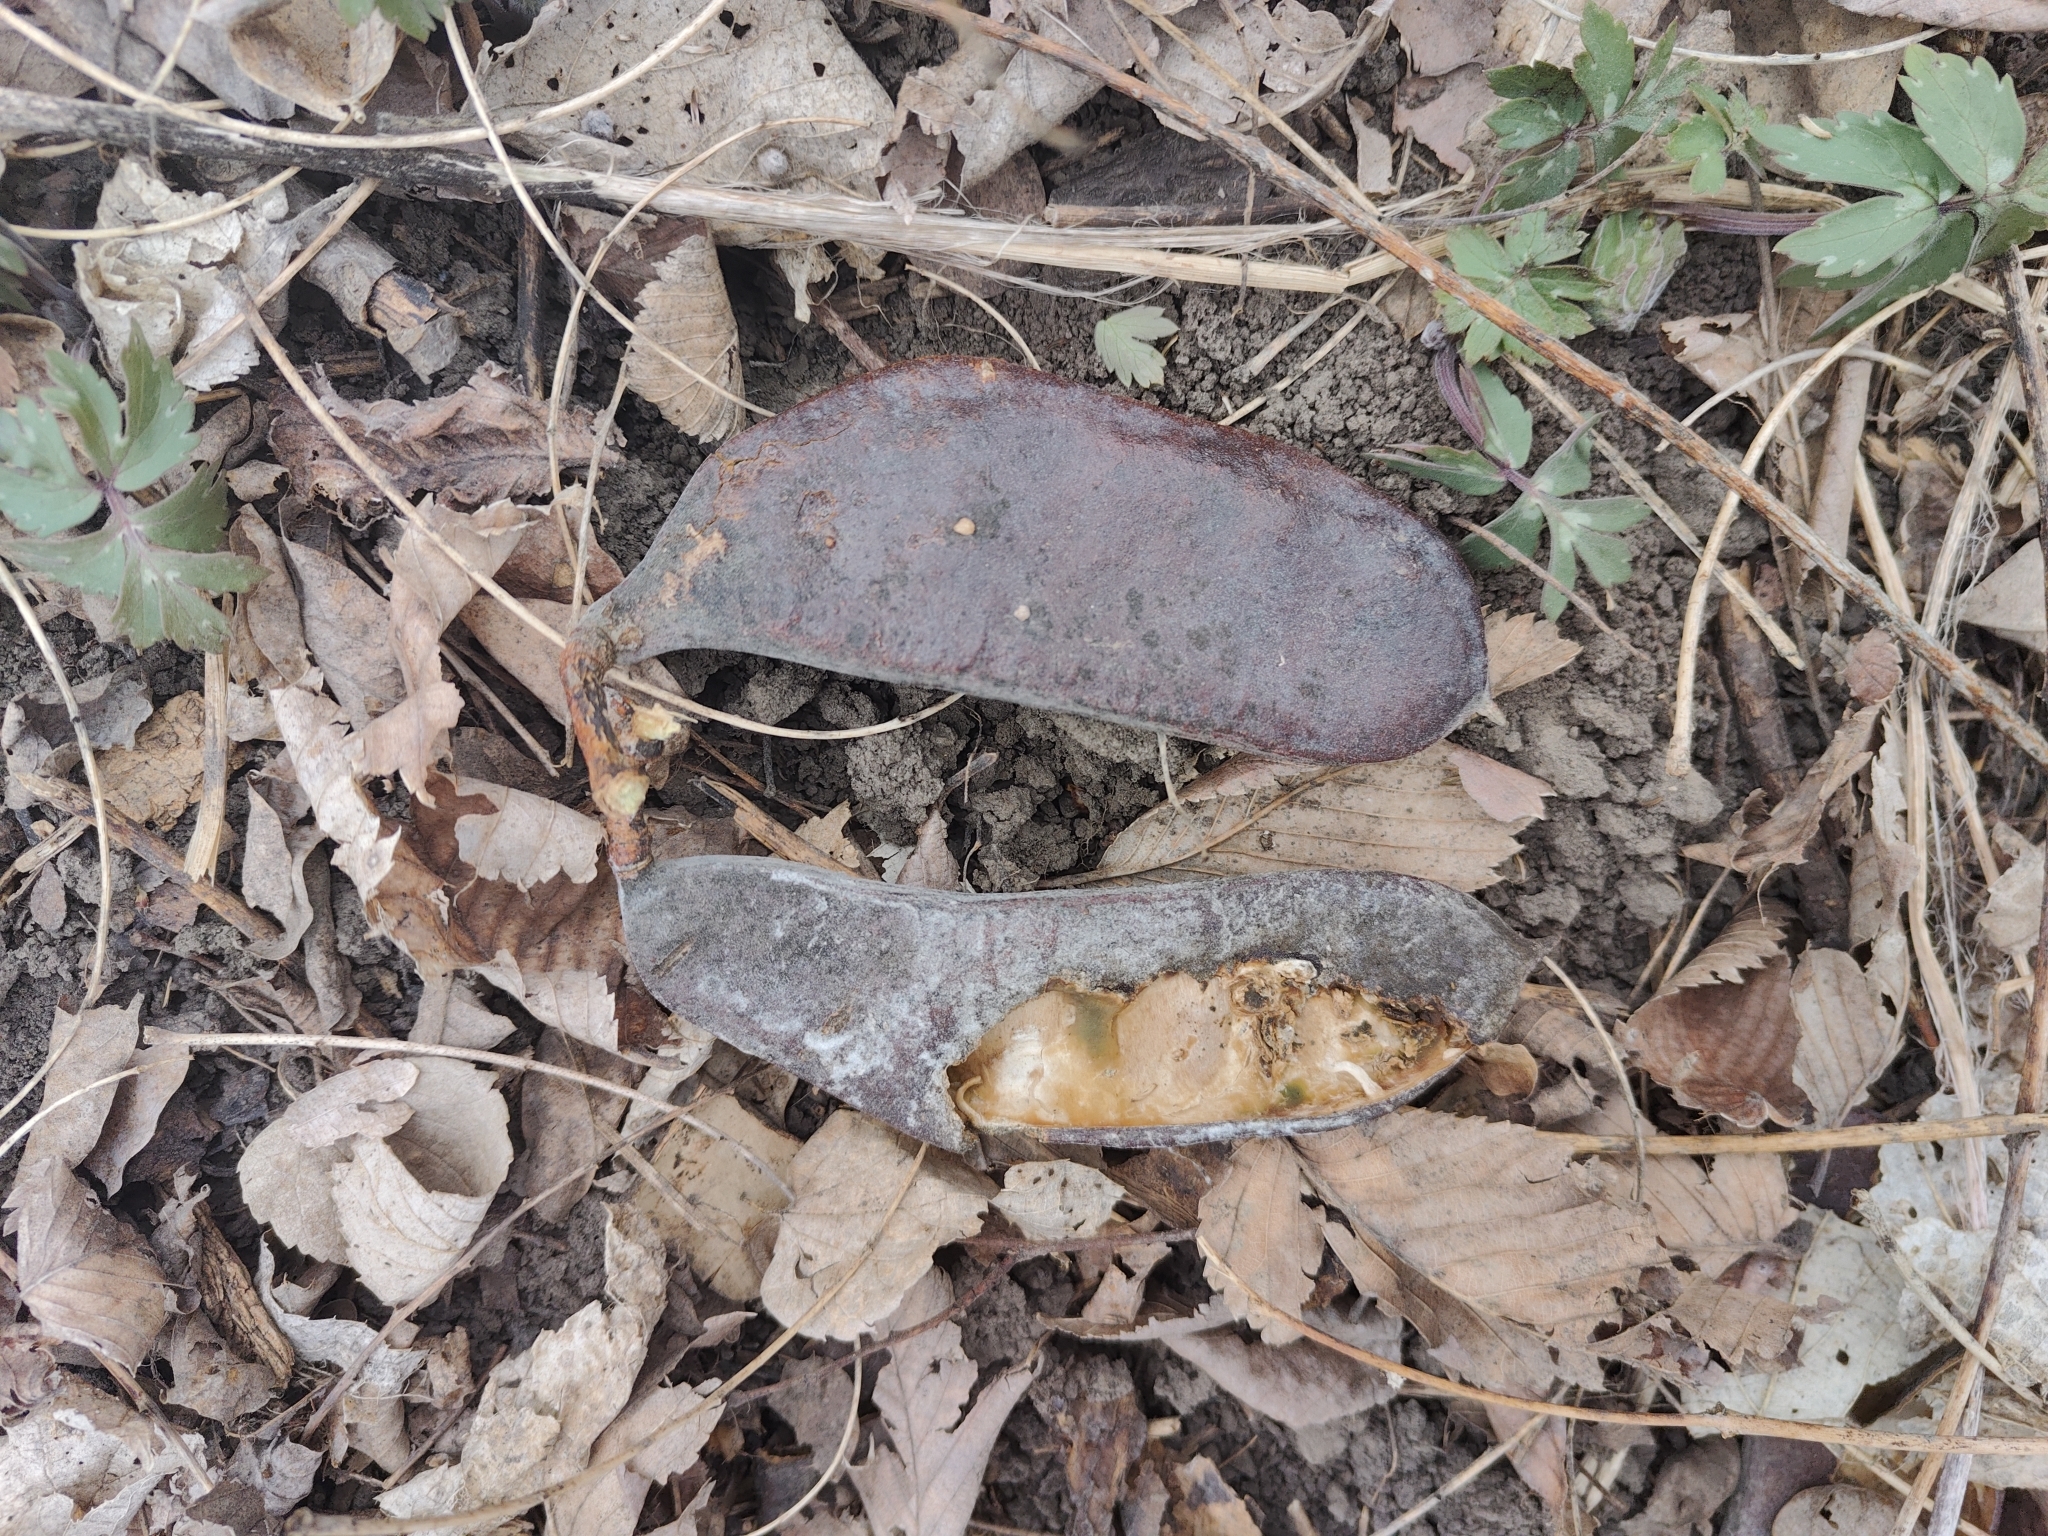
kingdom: Plantae
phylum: Tracheophyta
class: Magnoliopsida
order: Fabales
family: Fabaceae
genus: Gymnocladus
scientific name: Gymnocladus dioicus
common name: Kentucky coffee-tree
